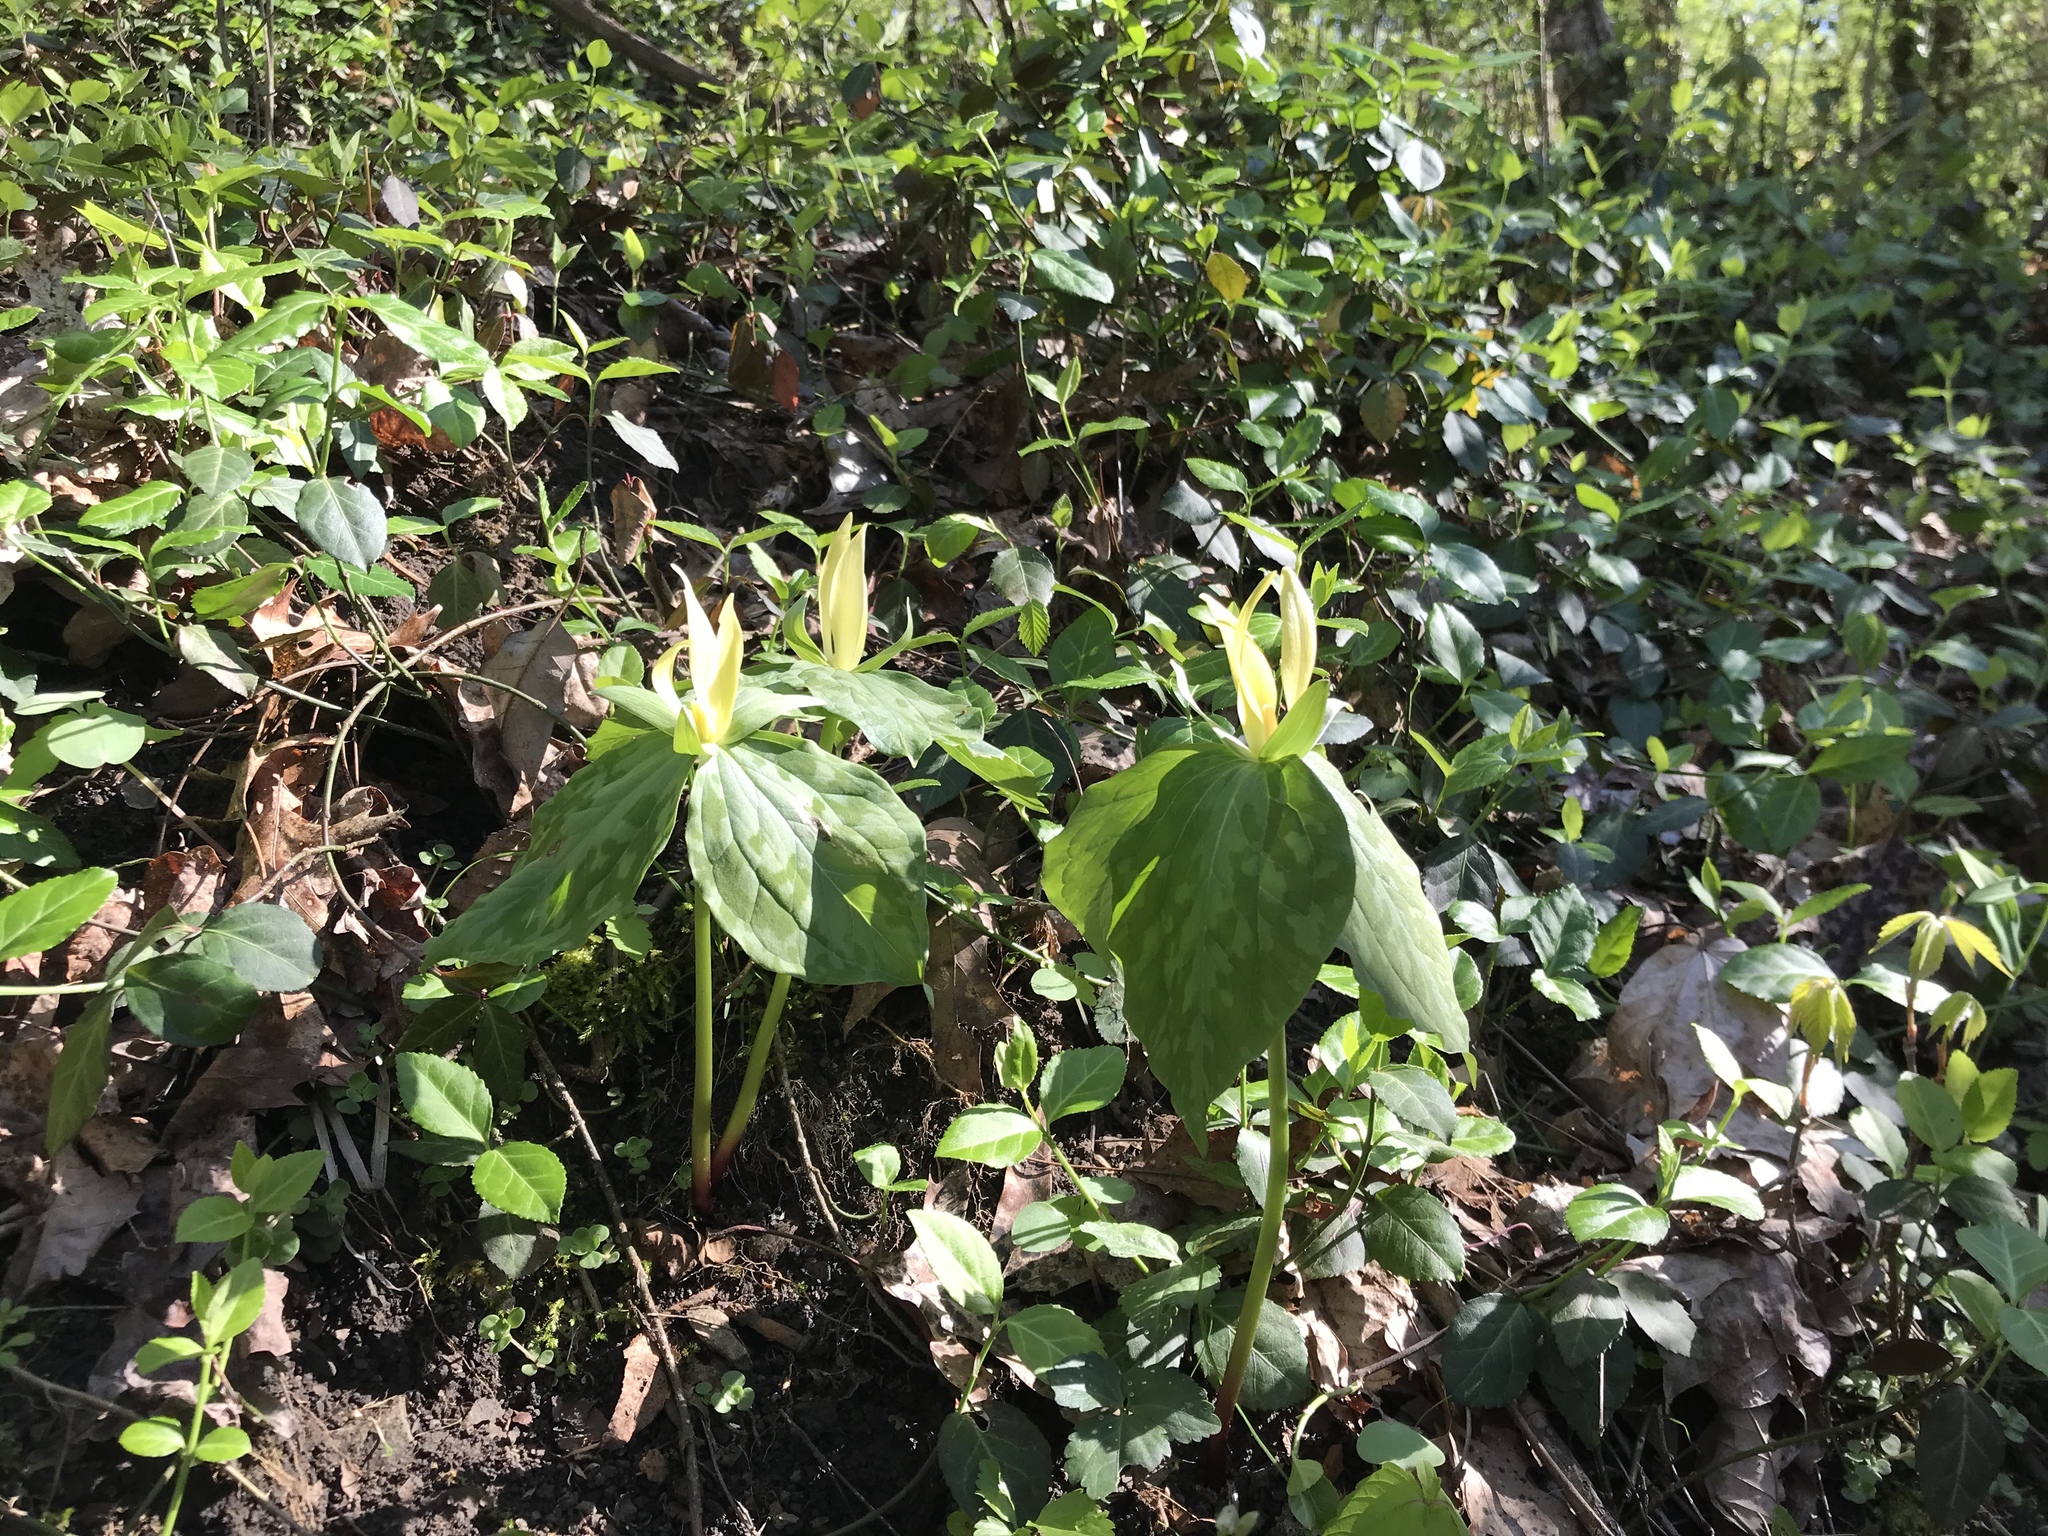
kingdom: Plantae
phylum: Tracheophyta
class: Liliopsida
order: Liliales
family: Melanthiaceae
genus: Trillium
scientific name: Trillium luteum
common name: Wax trillium
